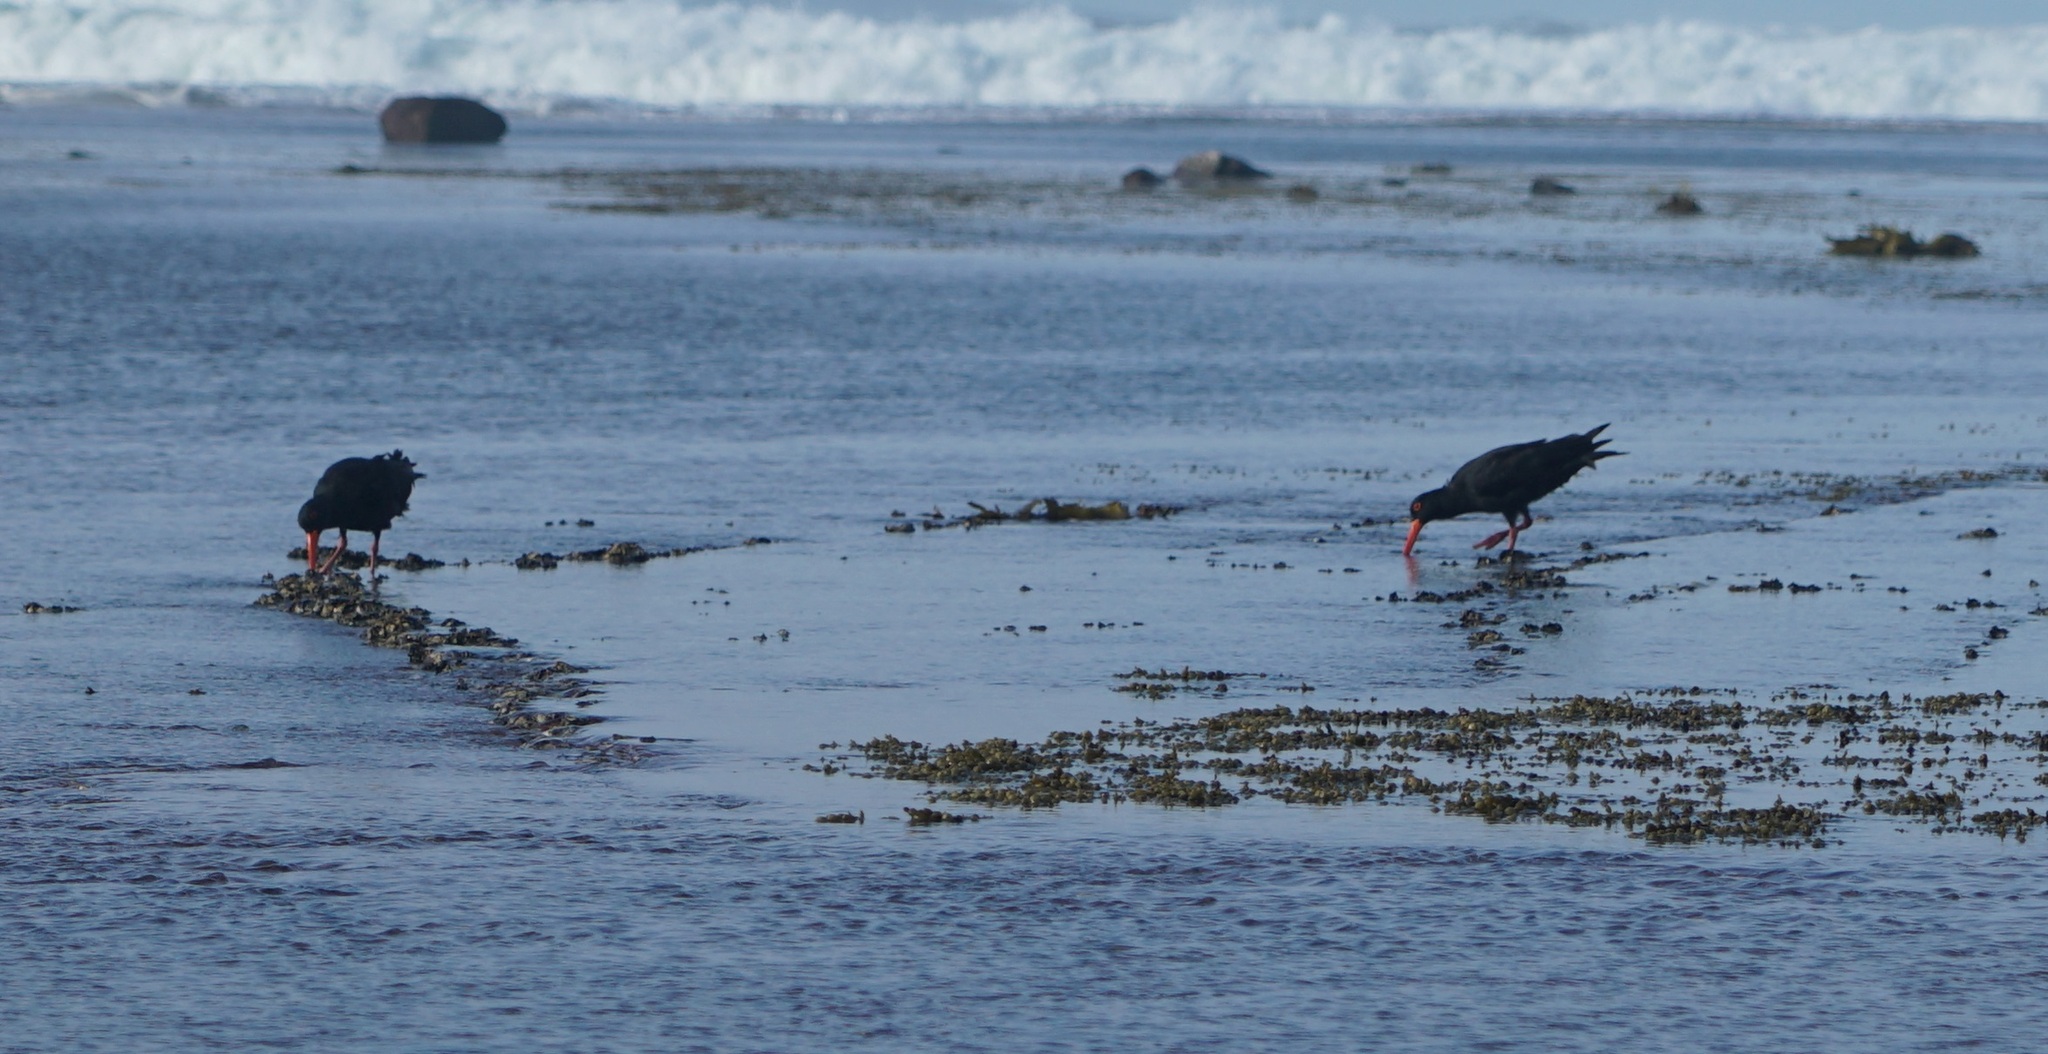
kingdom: Animalia
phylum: Chordata
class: Aves
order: Charadriiformes
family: Haematopodidae
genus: Haematopus
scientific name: Haematopus fuliginosus
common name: Sooty oystercatcher
